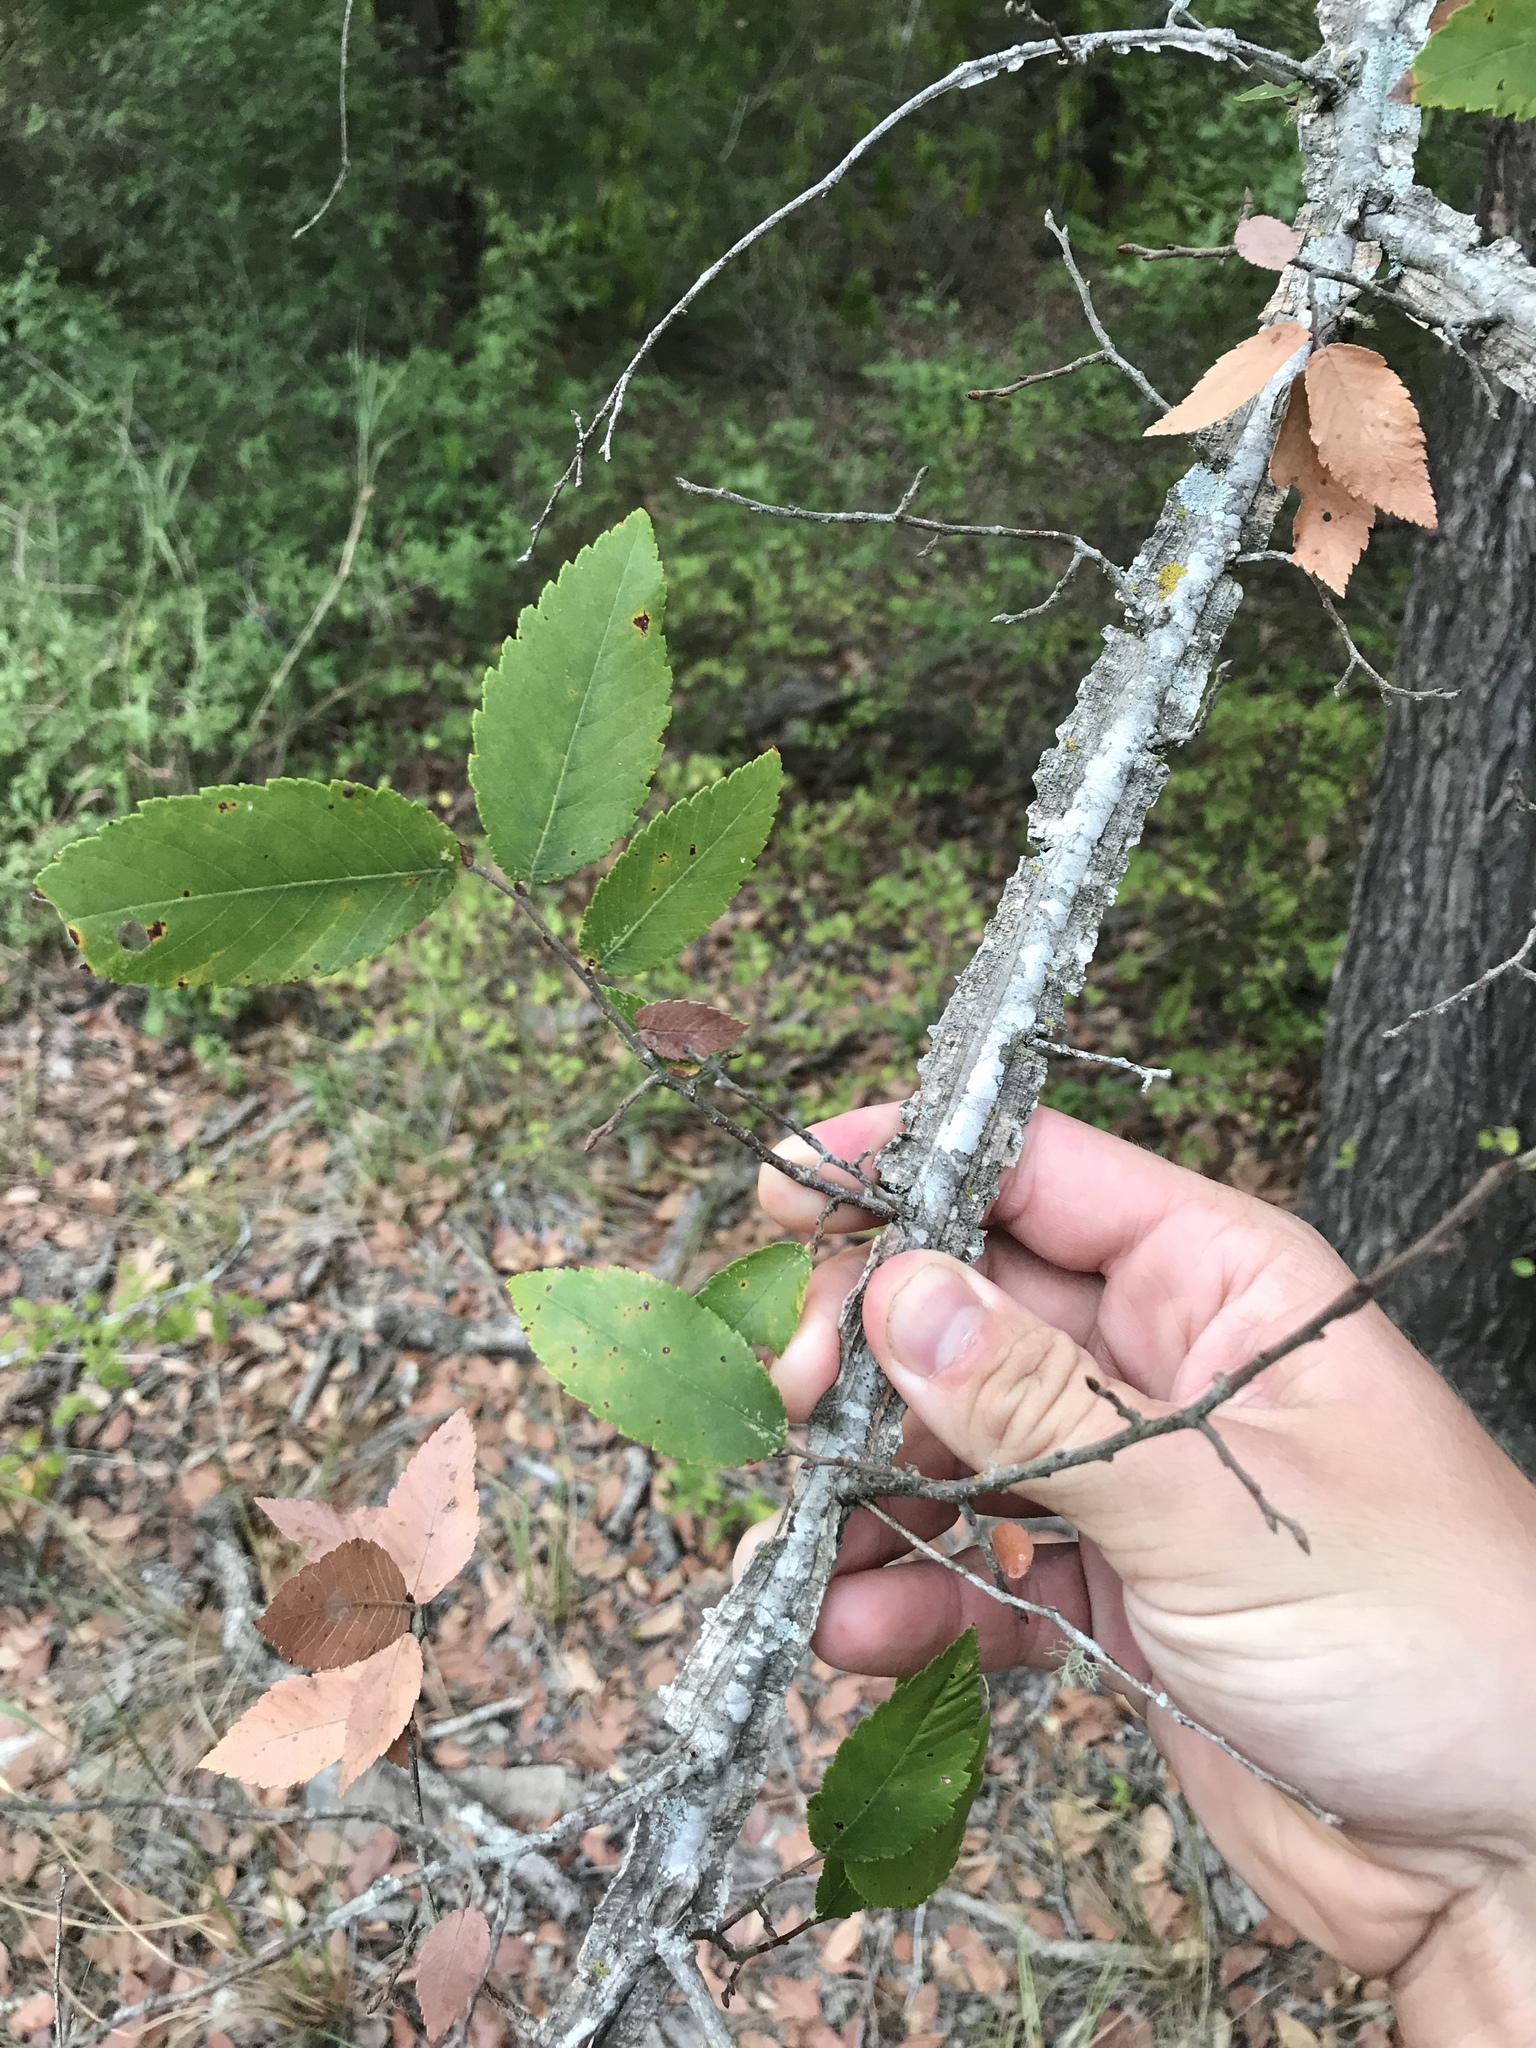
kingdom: Plantae
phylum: Tracheophyta
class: Magnoliopsida
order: Rosales
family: Ulmaceae
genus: Ulmus
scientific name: Ulmus alata
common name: Winged elm
